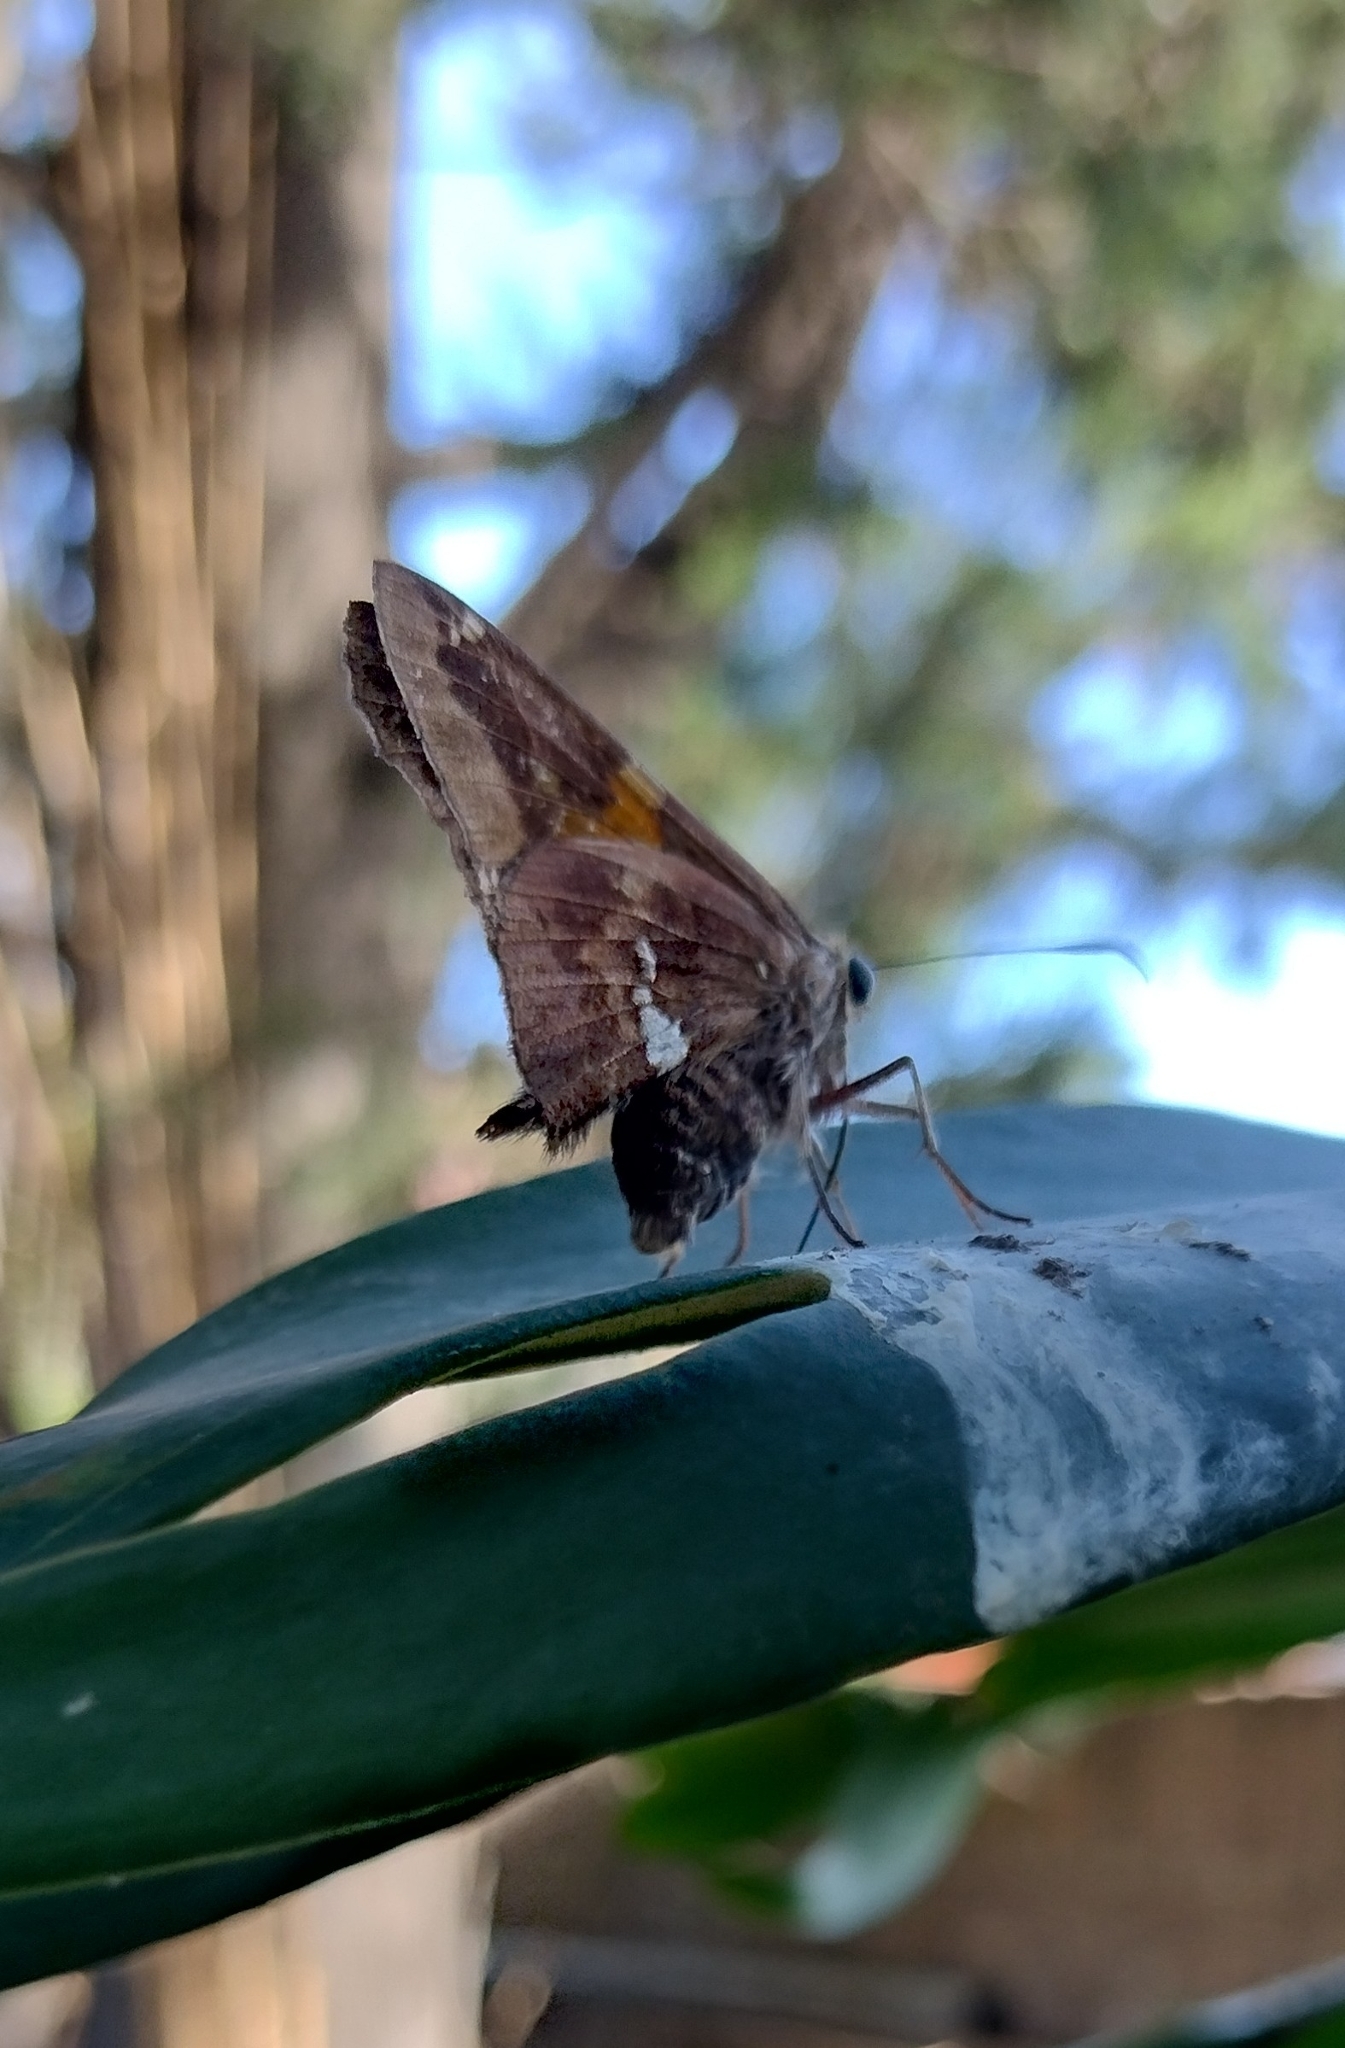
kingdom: Animalia
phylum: Arthropoda
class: Insecta
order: Lepidoptera
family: Hesperiidae
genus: Epargyreus
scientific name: Epargyreus tmolis
